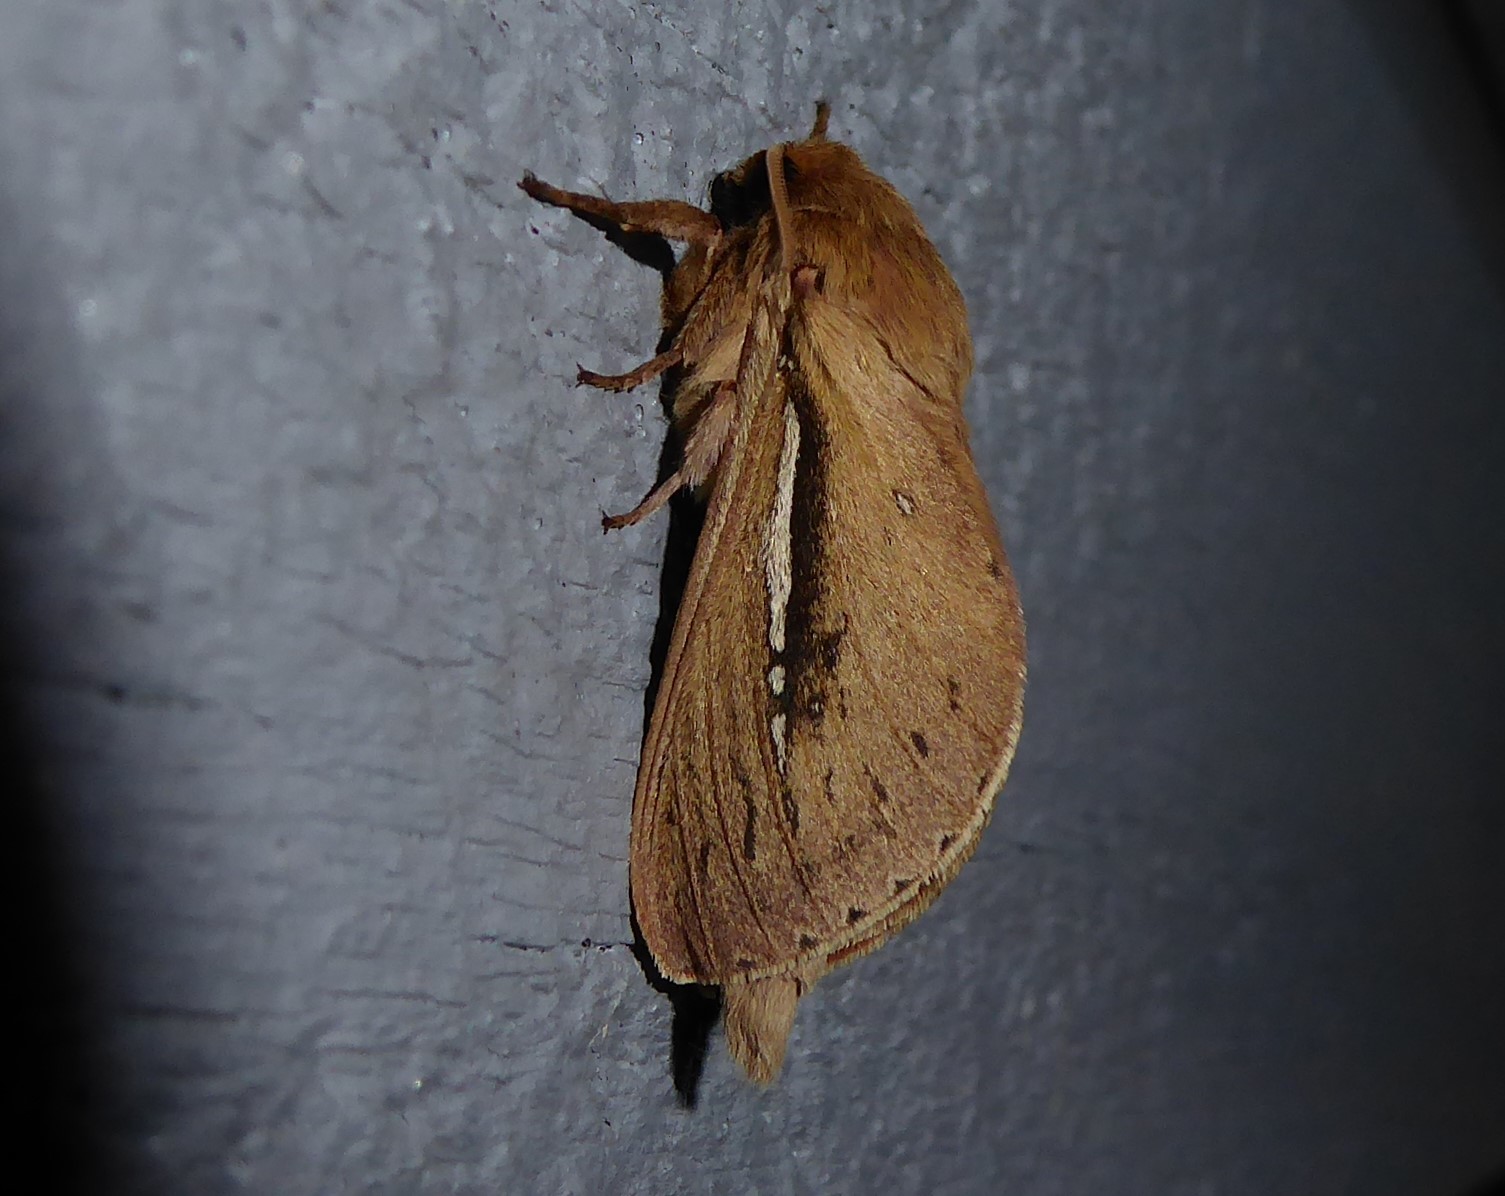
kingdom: Animalia
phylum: Arthropoda
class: Insecta
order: Lepidoptera
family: Hepialidae
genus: Wiseana
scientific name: Wiseana umbraculatus
